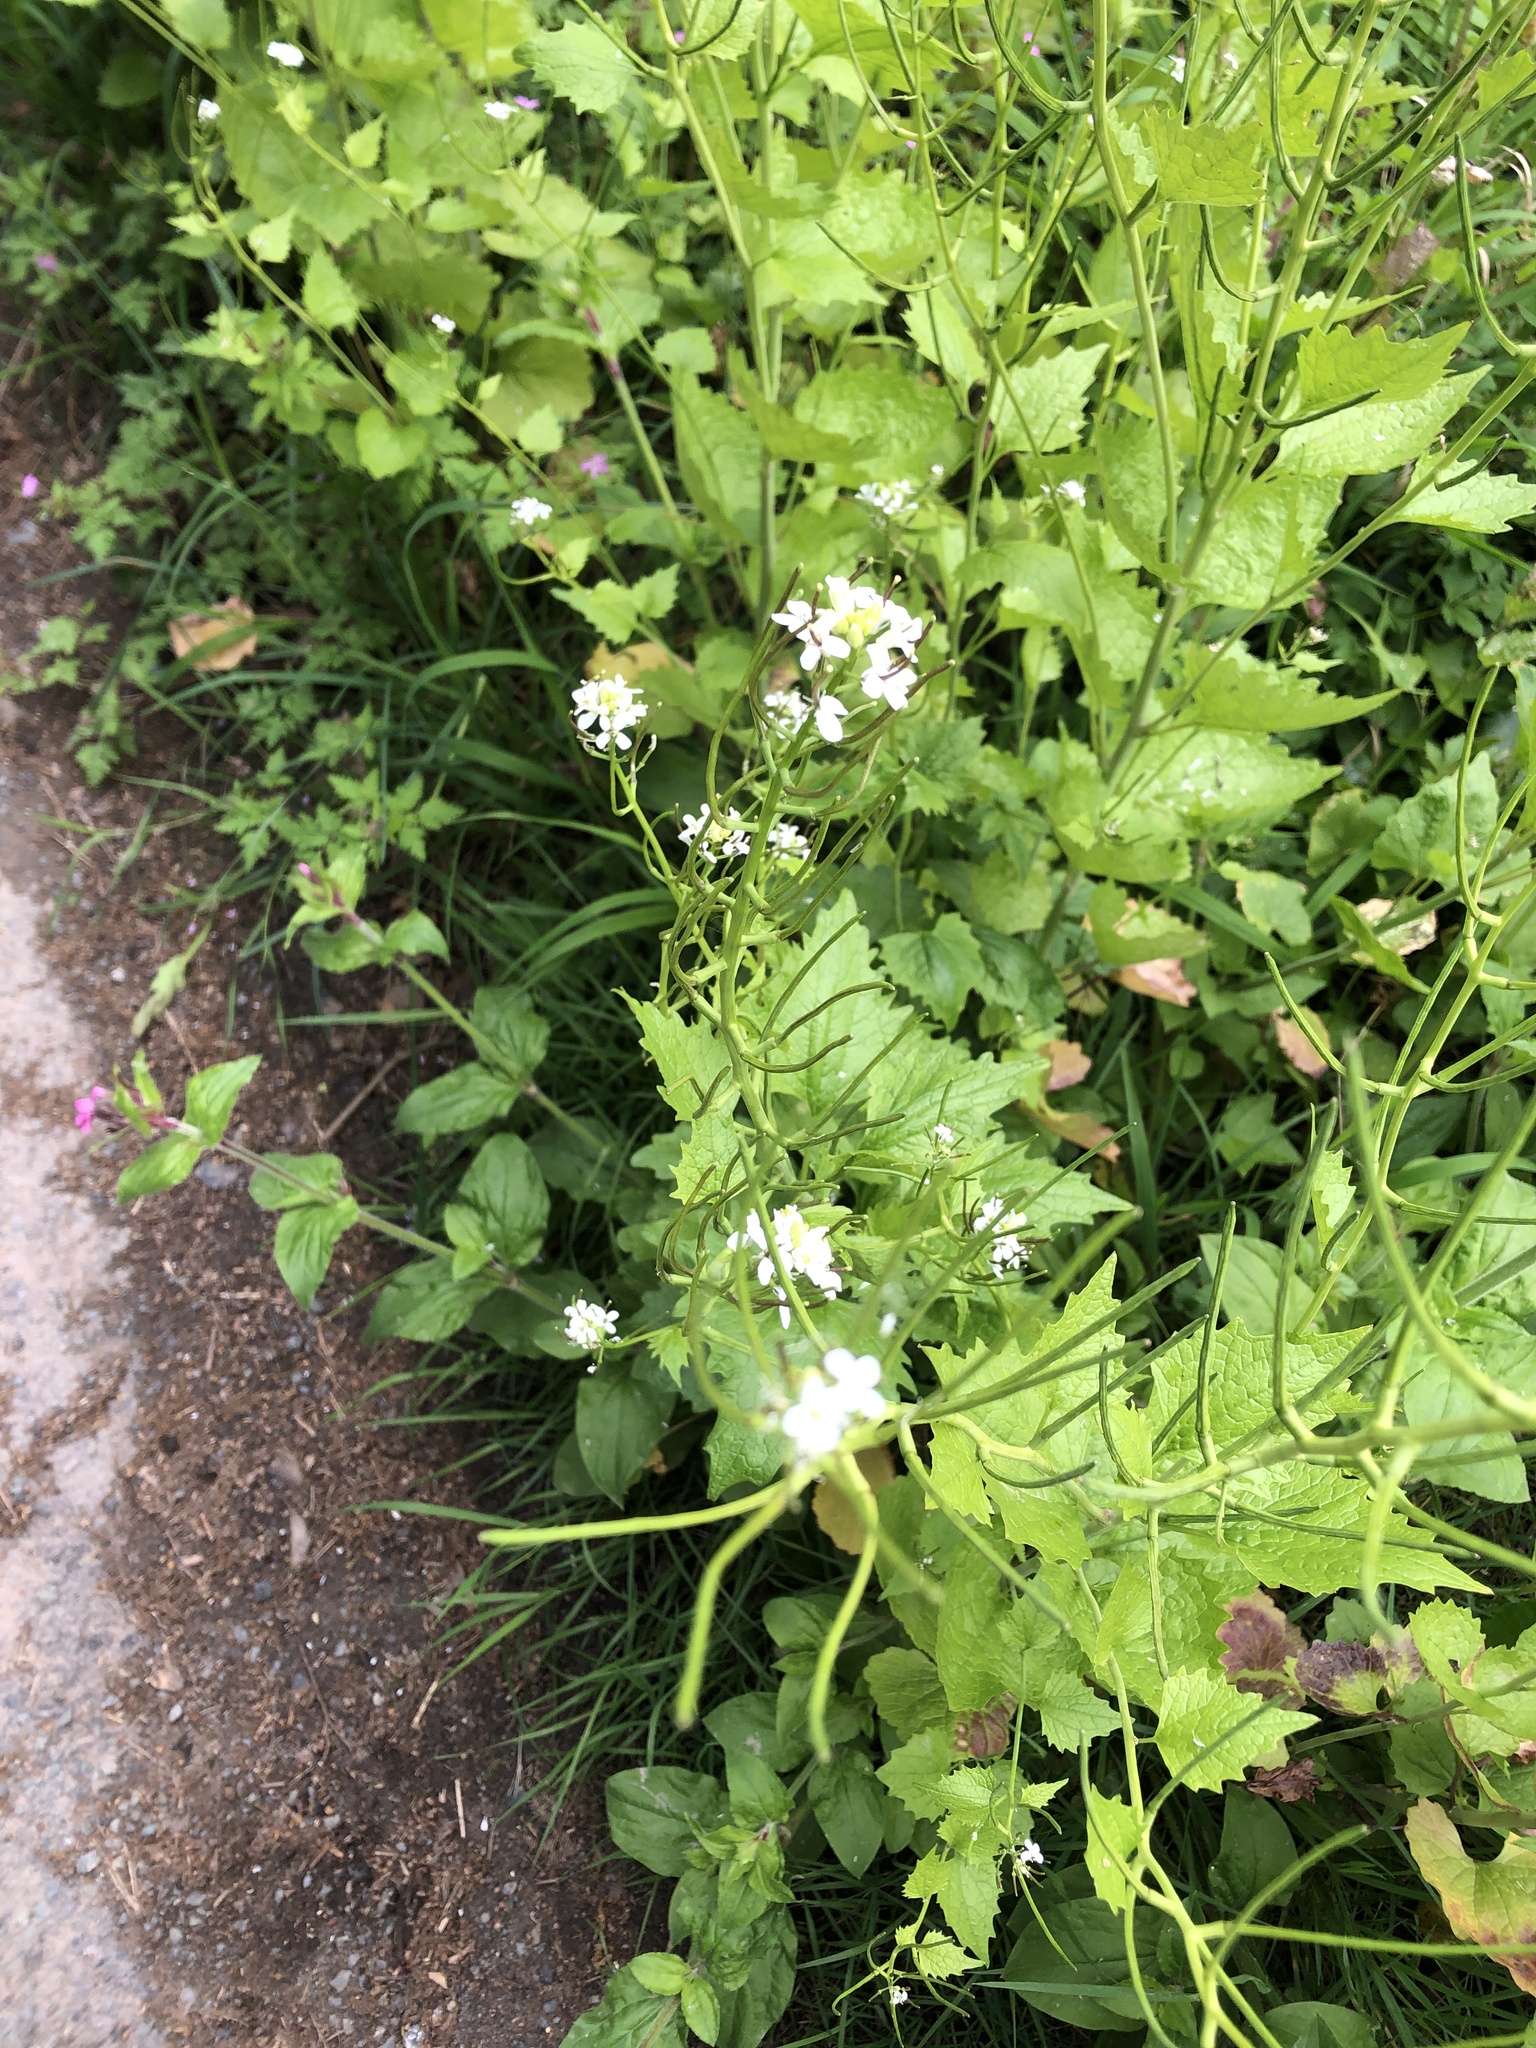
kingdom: Plantae
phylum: Tracheophyta
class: Magnoliopsida
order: Brassicales
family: Brassicaceae
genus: Alliaria
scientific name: Alliaria petiolata
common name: Garlic mustard
